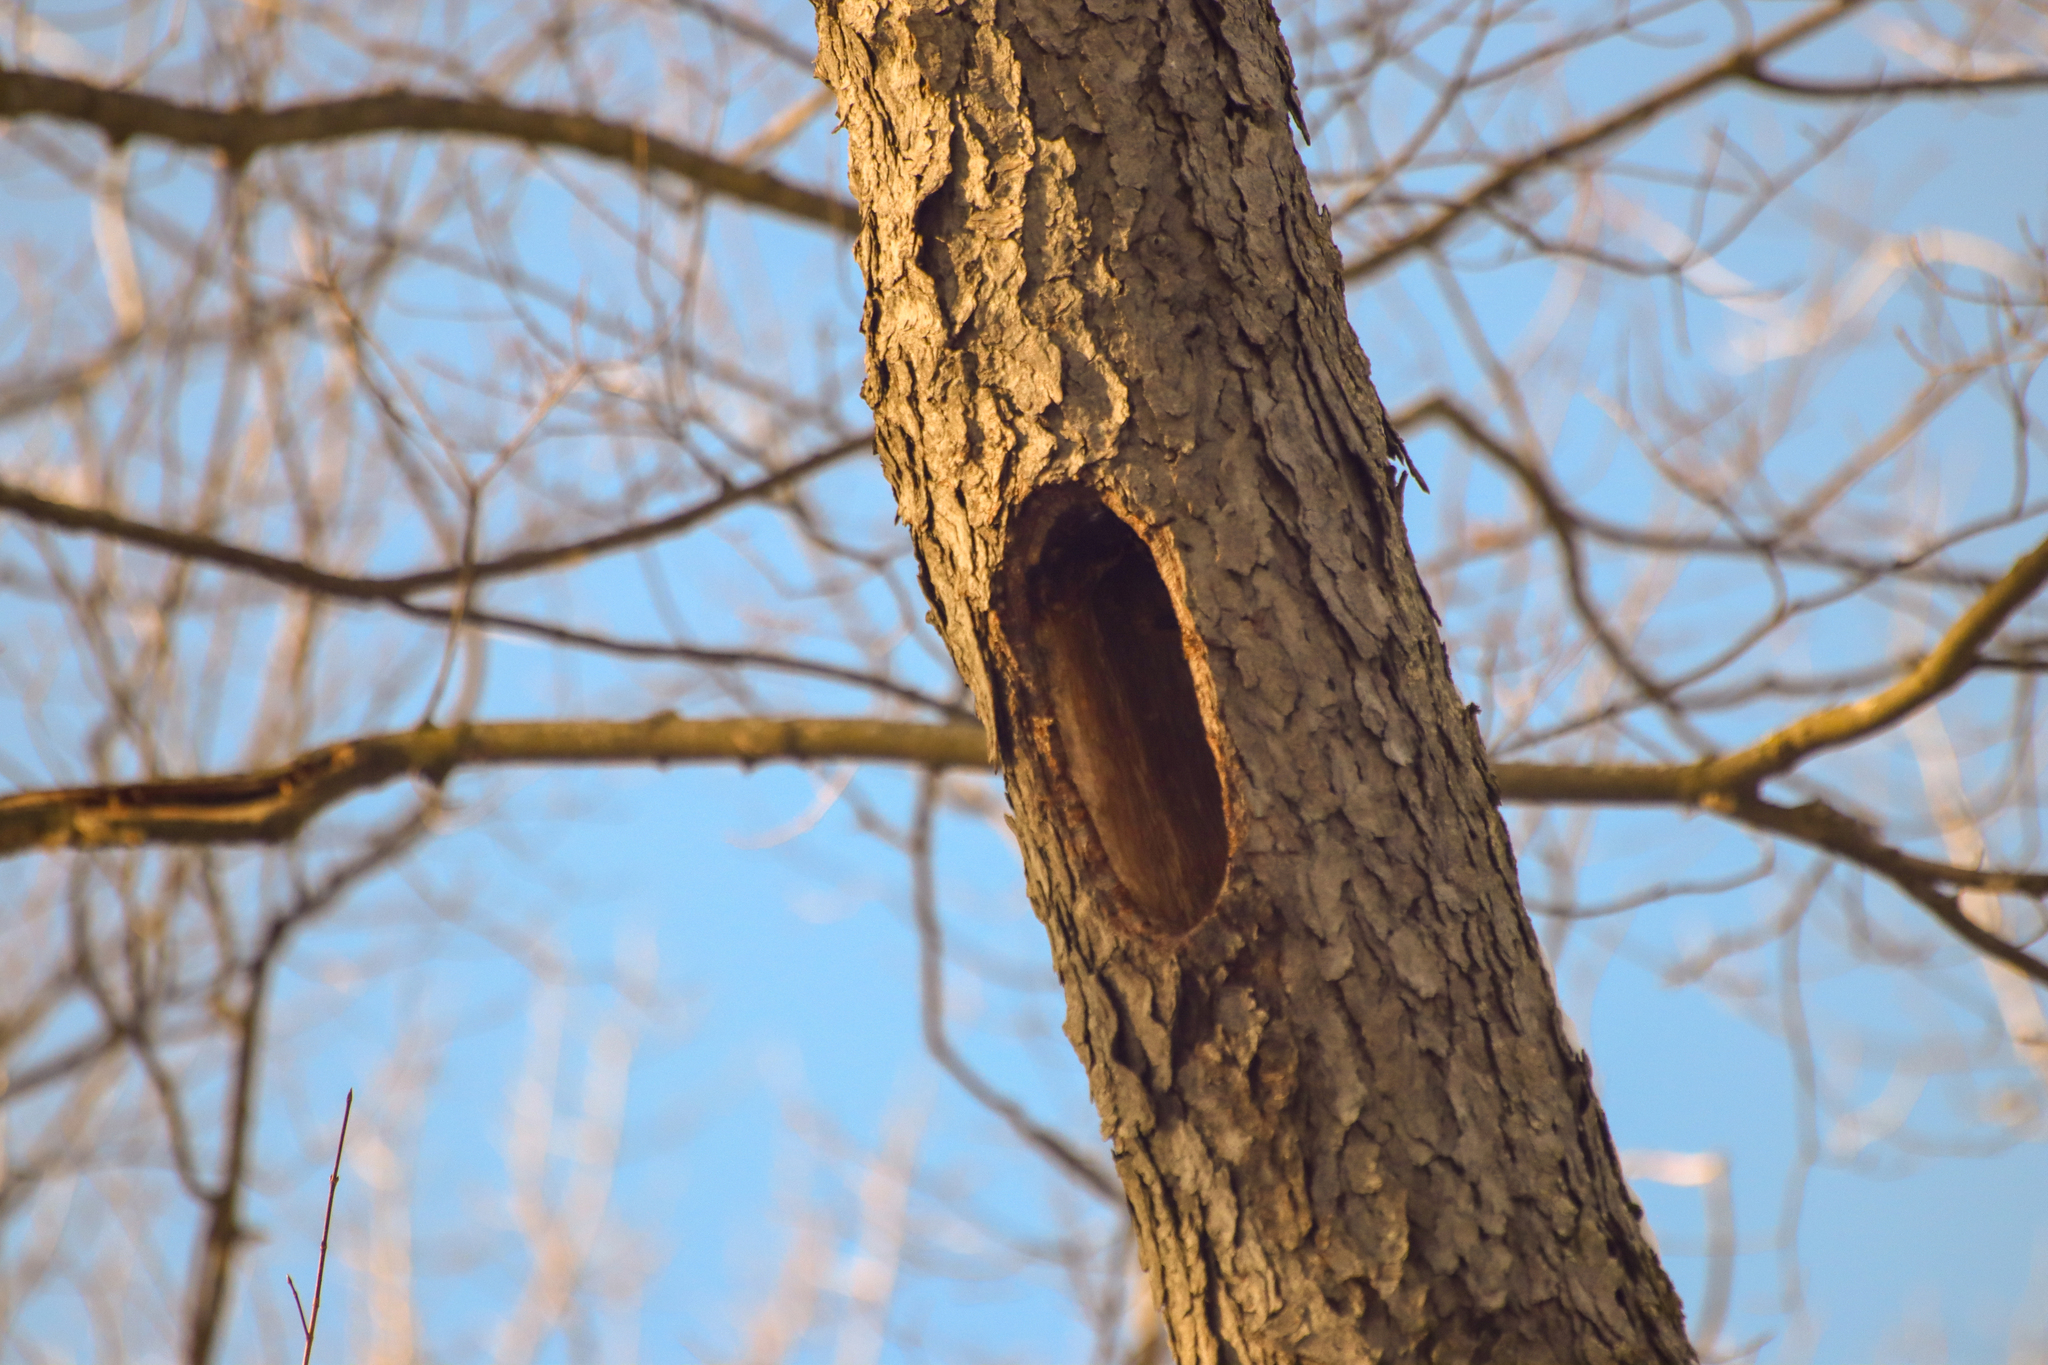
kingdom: Animalia
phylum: Chordata
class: Aves
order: Piciformes
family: Picidae
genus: Dryocopus
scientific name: Dryocopus pileatus
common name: Pileated woodpecker
